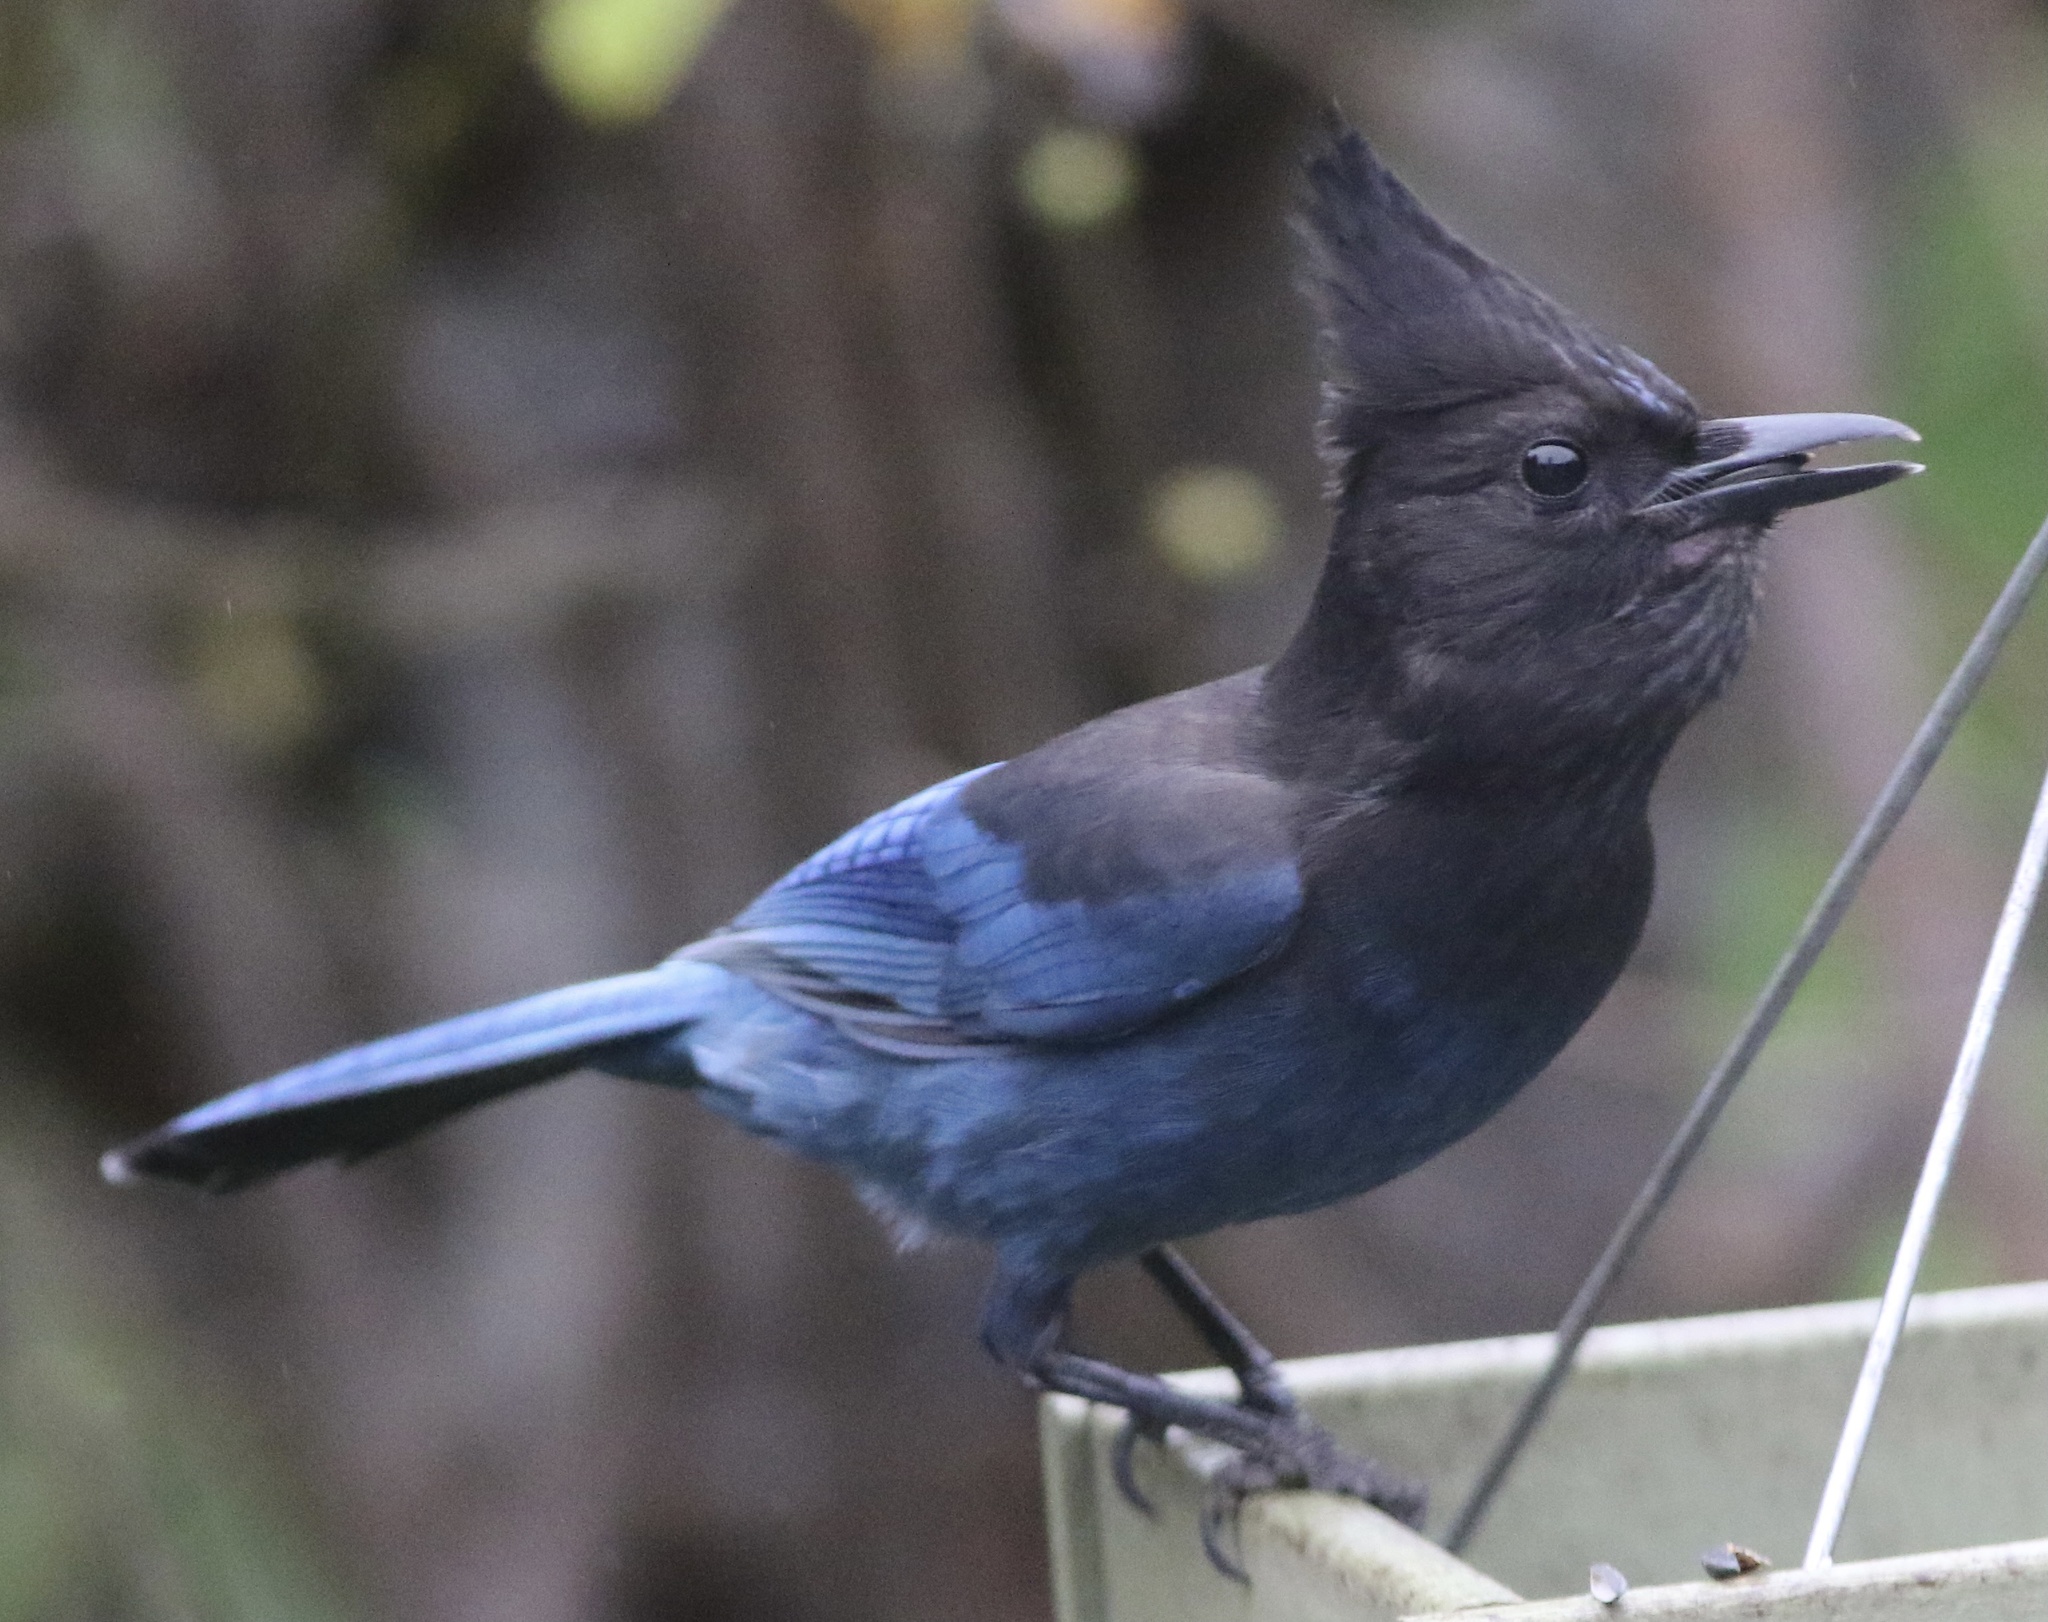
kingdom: Animalia
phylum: Chordata
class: Aves
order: Passeriformes
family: Corvidae
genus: Cyanocitta
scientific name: Cyanocitta stelleri
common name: Steller's jay
